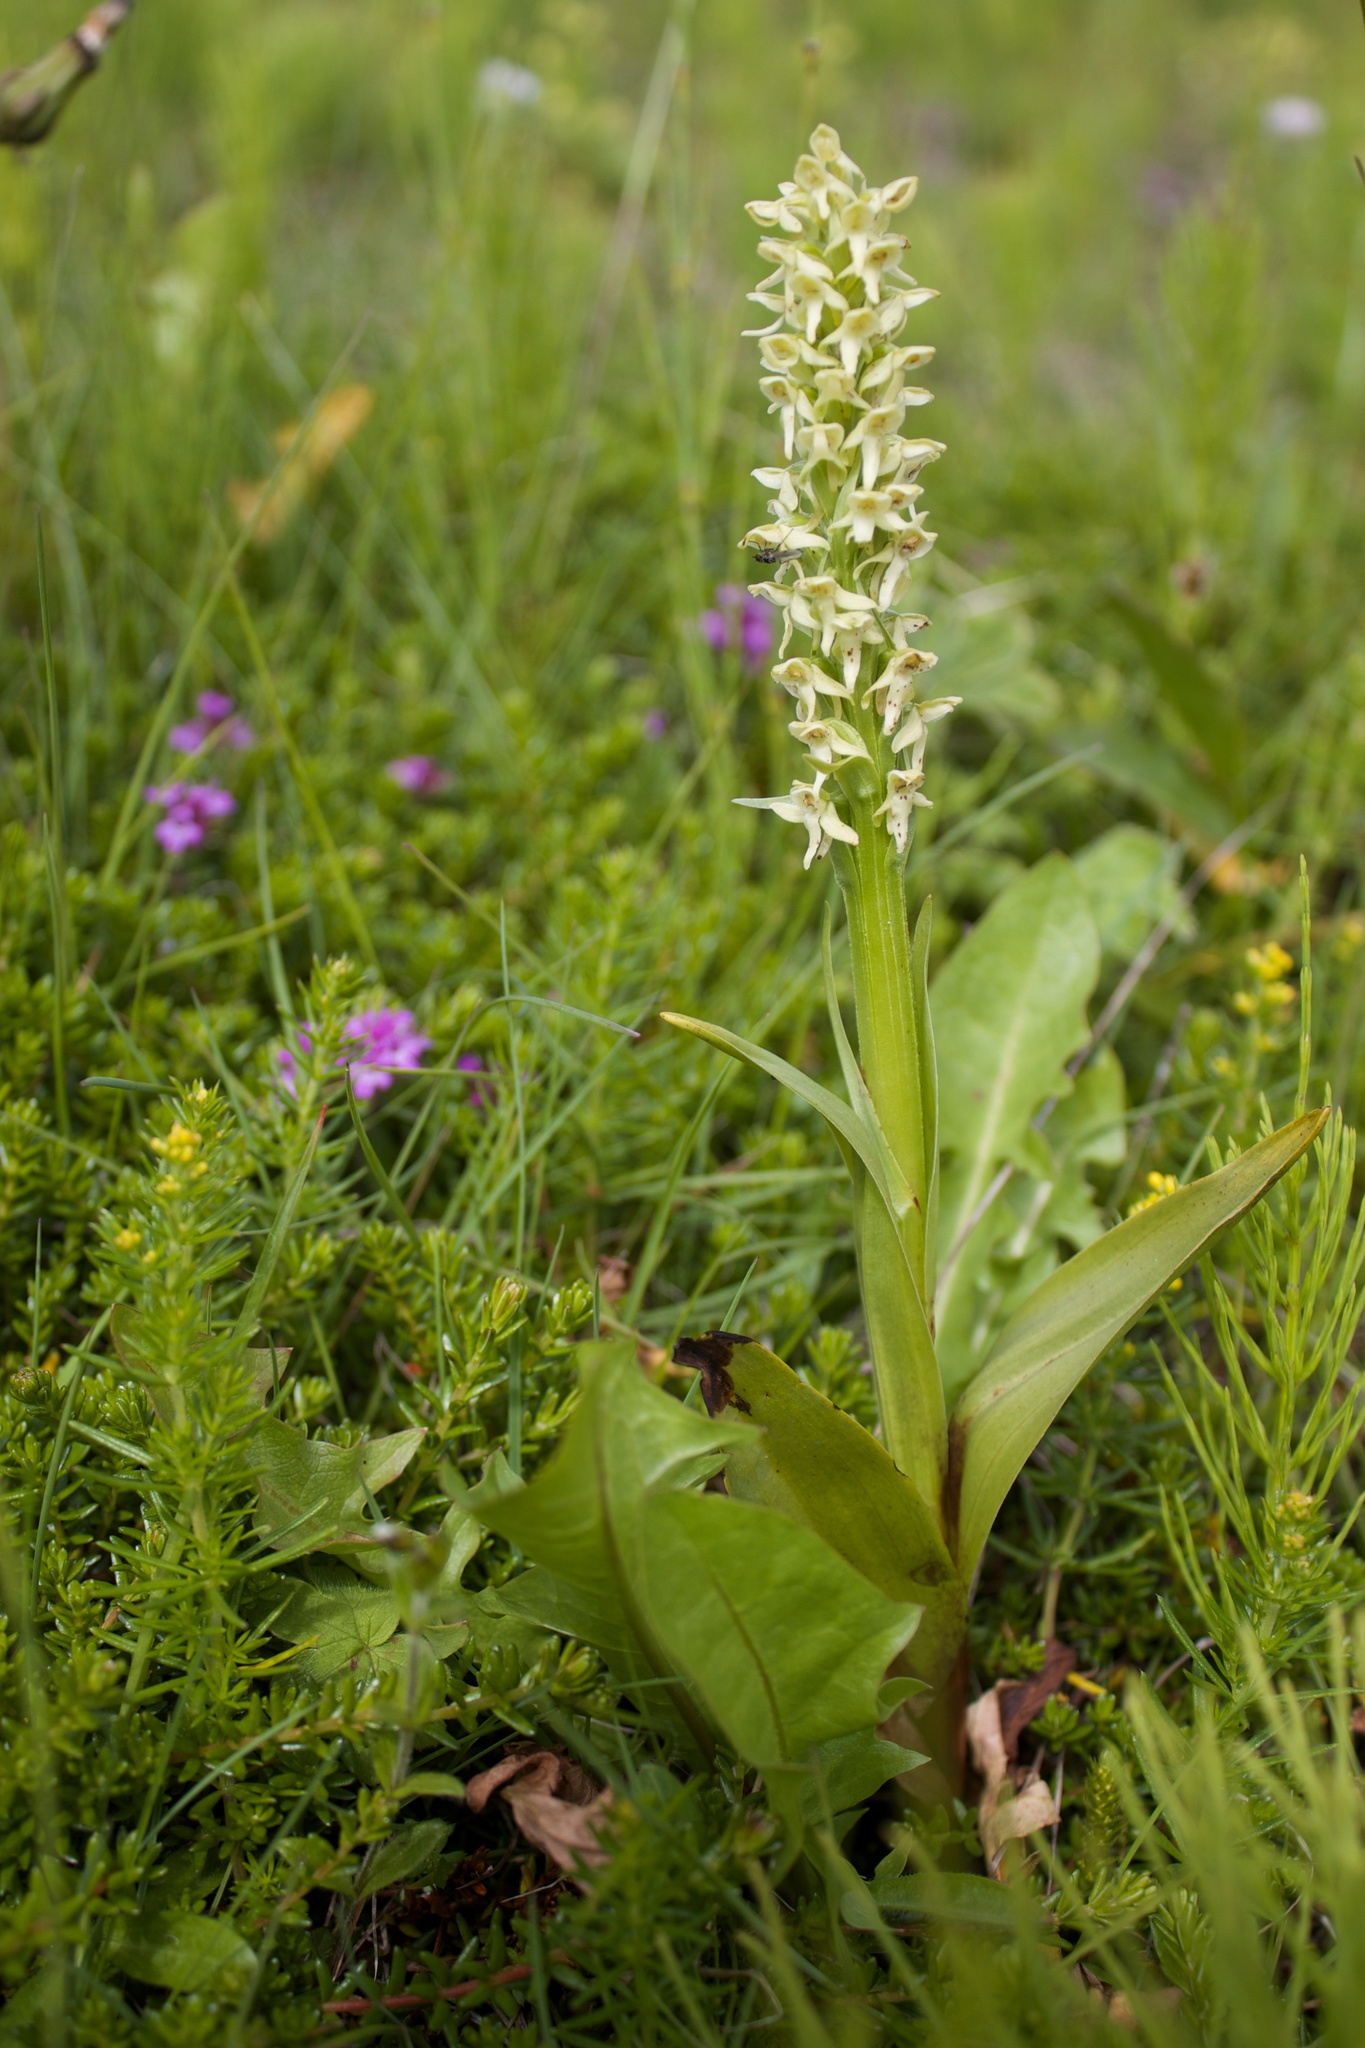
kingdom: Plantae
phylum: Tracheophyta
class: Liliopsida
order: Asparagales
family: Orchidaceae
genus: Platanthera
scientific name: Platanthera hyperborea
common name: Northern green orchid
